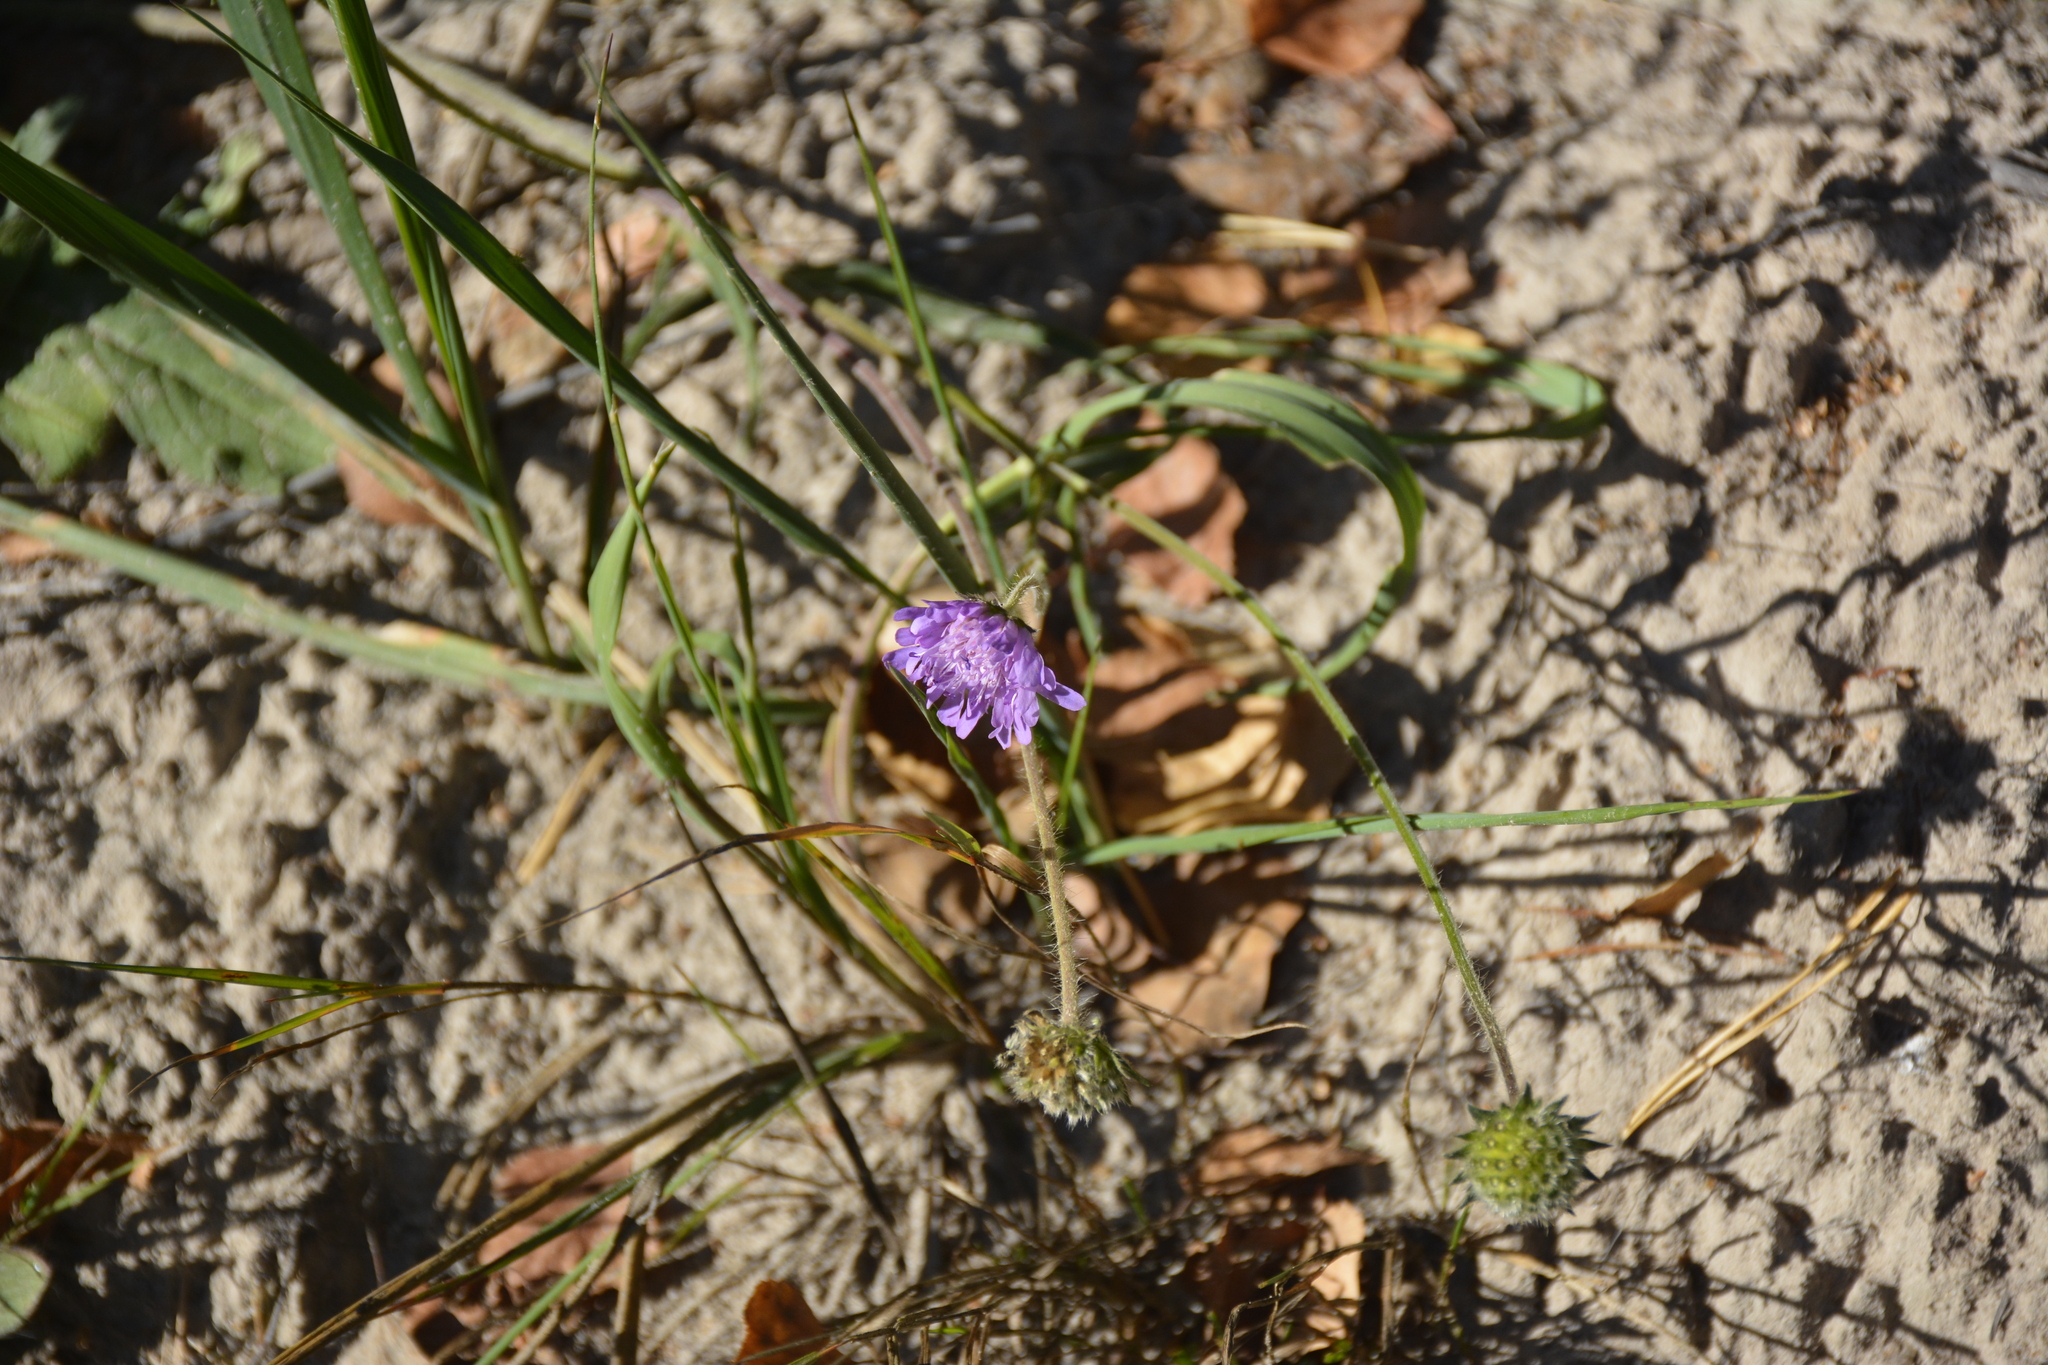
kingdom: Plantae
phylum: Tracheophyta
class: Magnoliopsida
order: Dipsacales
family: Caprifoliaceae
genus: Knautia
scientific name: Knautia arvensis
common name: Field scabiosa
